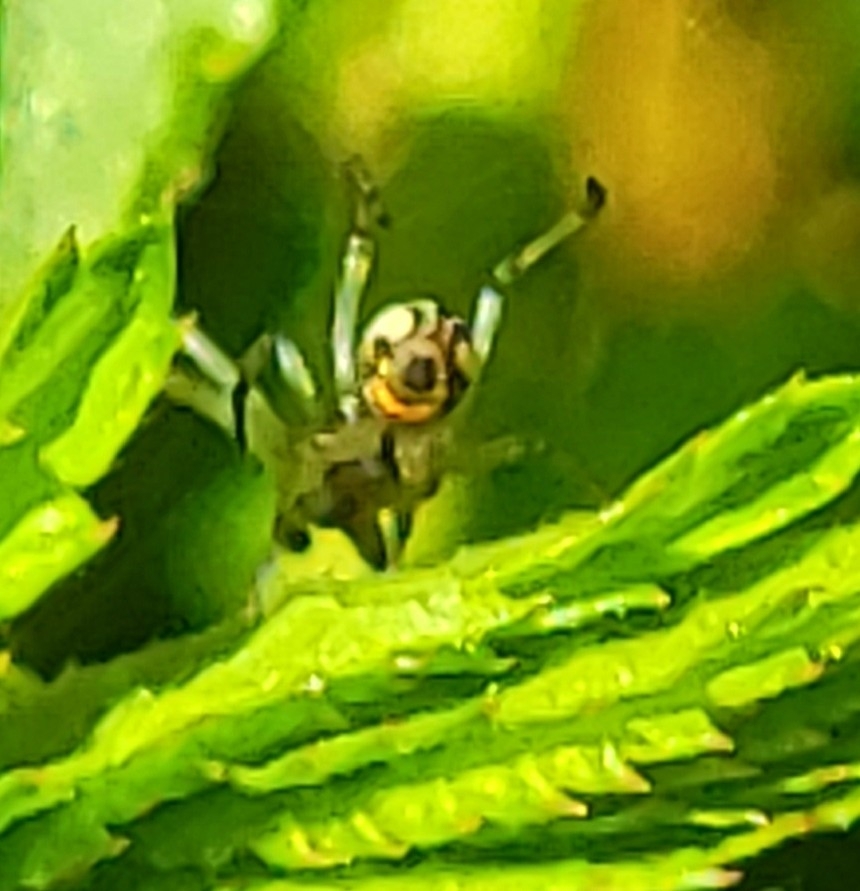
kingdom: Animalia
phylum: Arthropoda
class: Arachnida
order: Araneae
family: Tetragnathidae
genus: Leucauge
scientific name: Leucauge venusta
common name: Longjawed orb weavers
